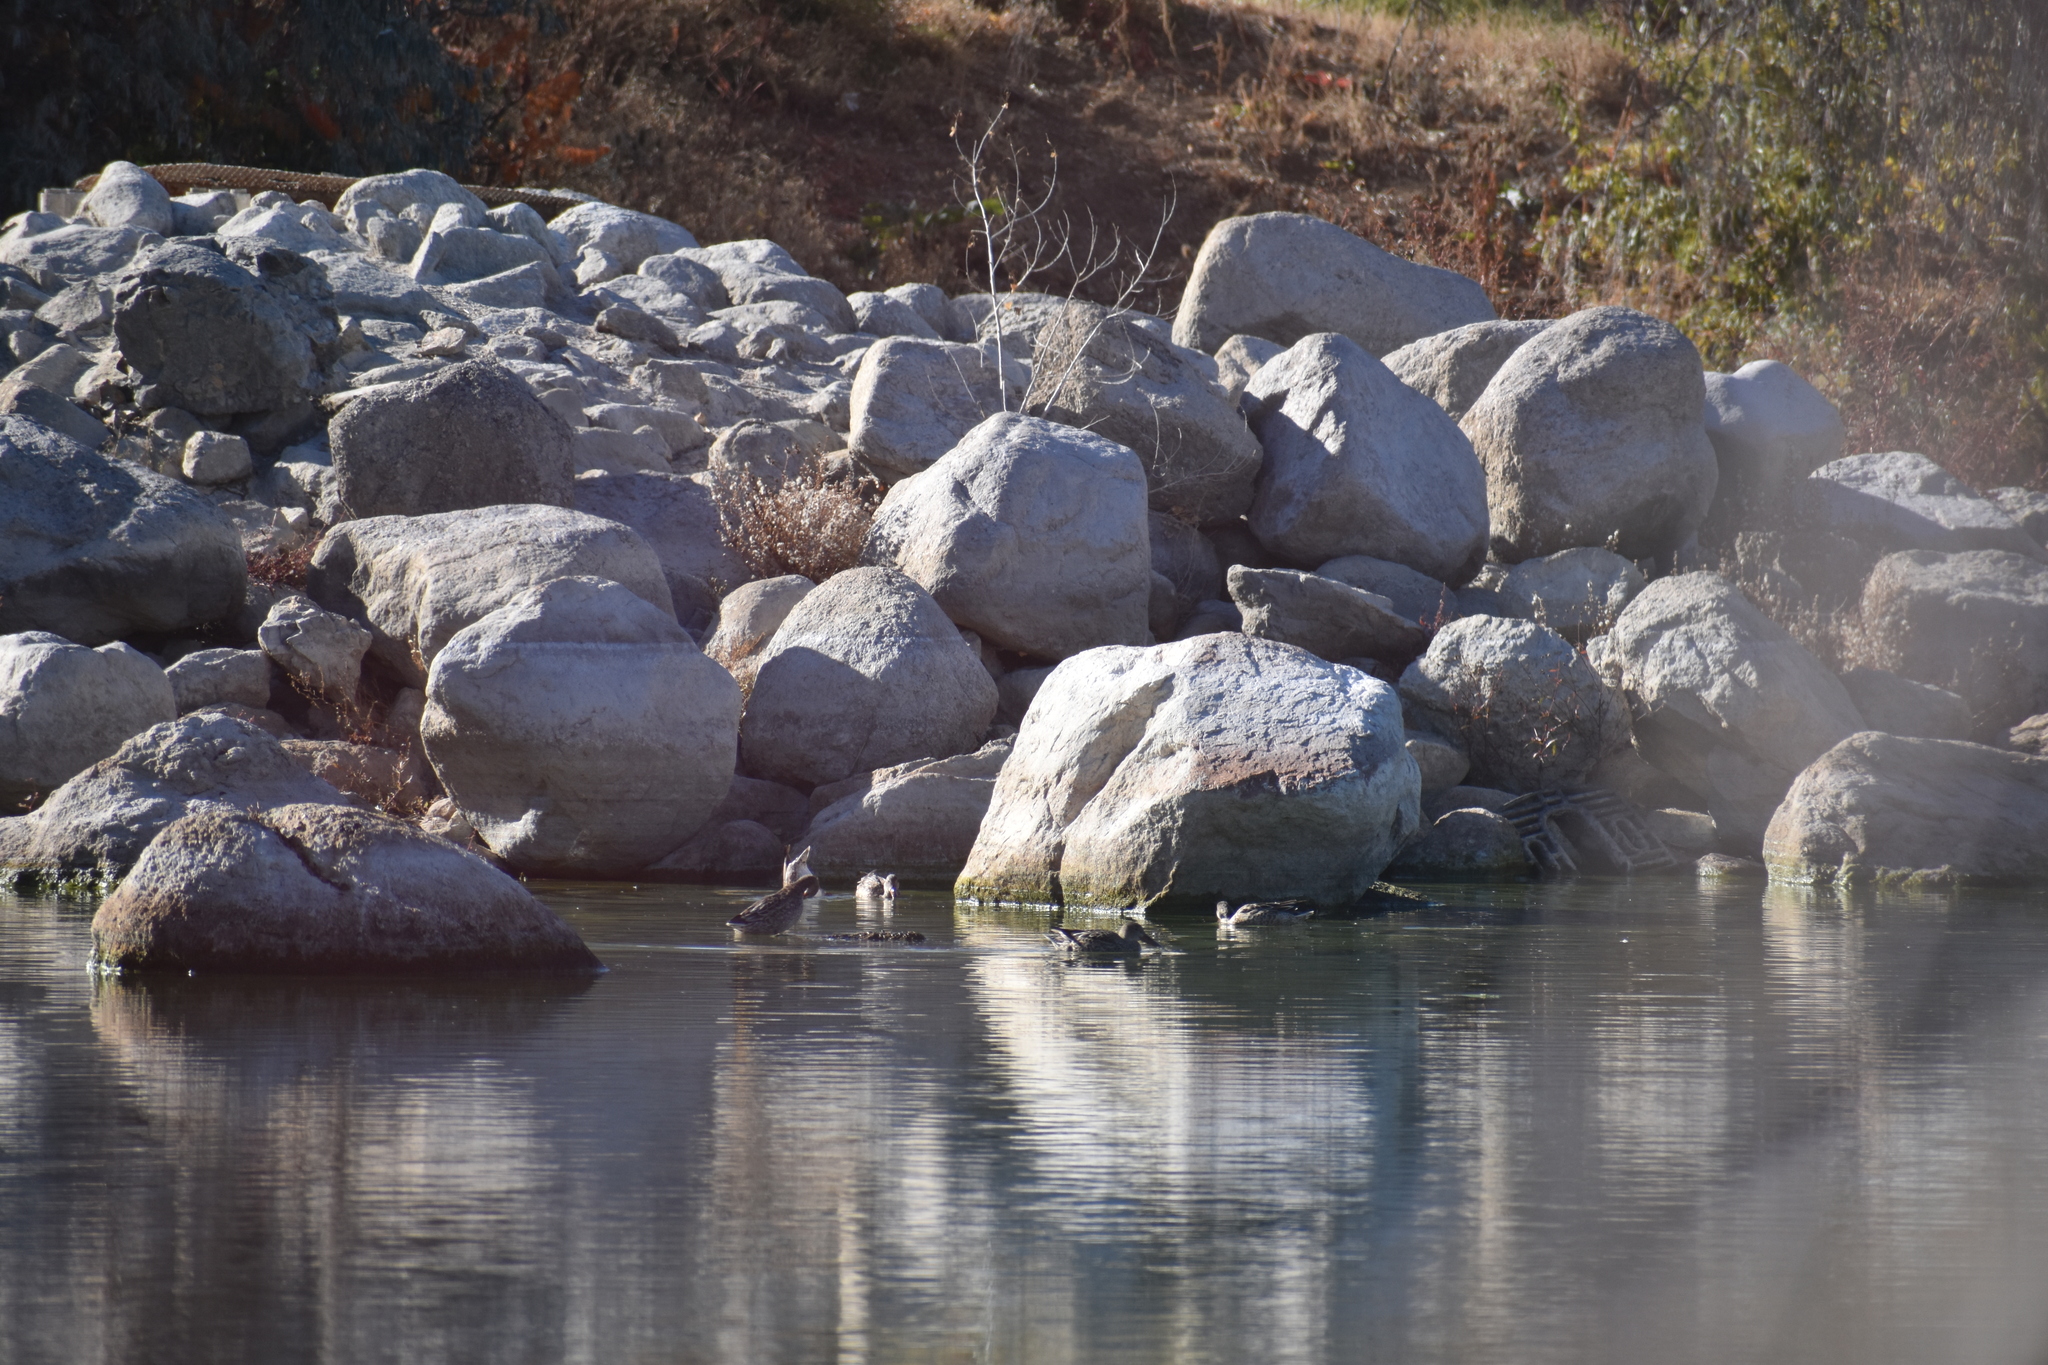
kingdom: Animalia
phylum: Chordata
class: Aves
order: Anseriformes
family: Anatidae
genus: Spatula
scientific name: Spatula clypeata
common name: Northern shoveler
